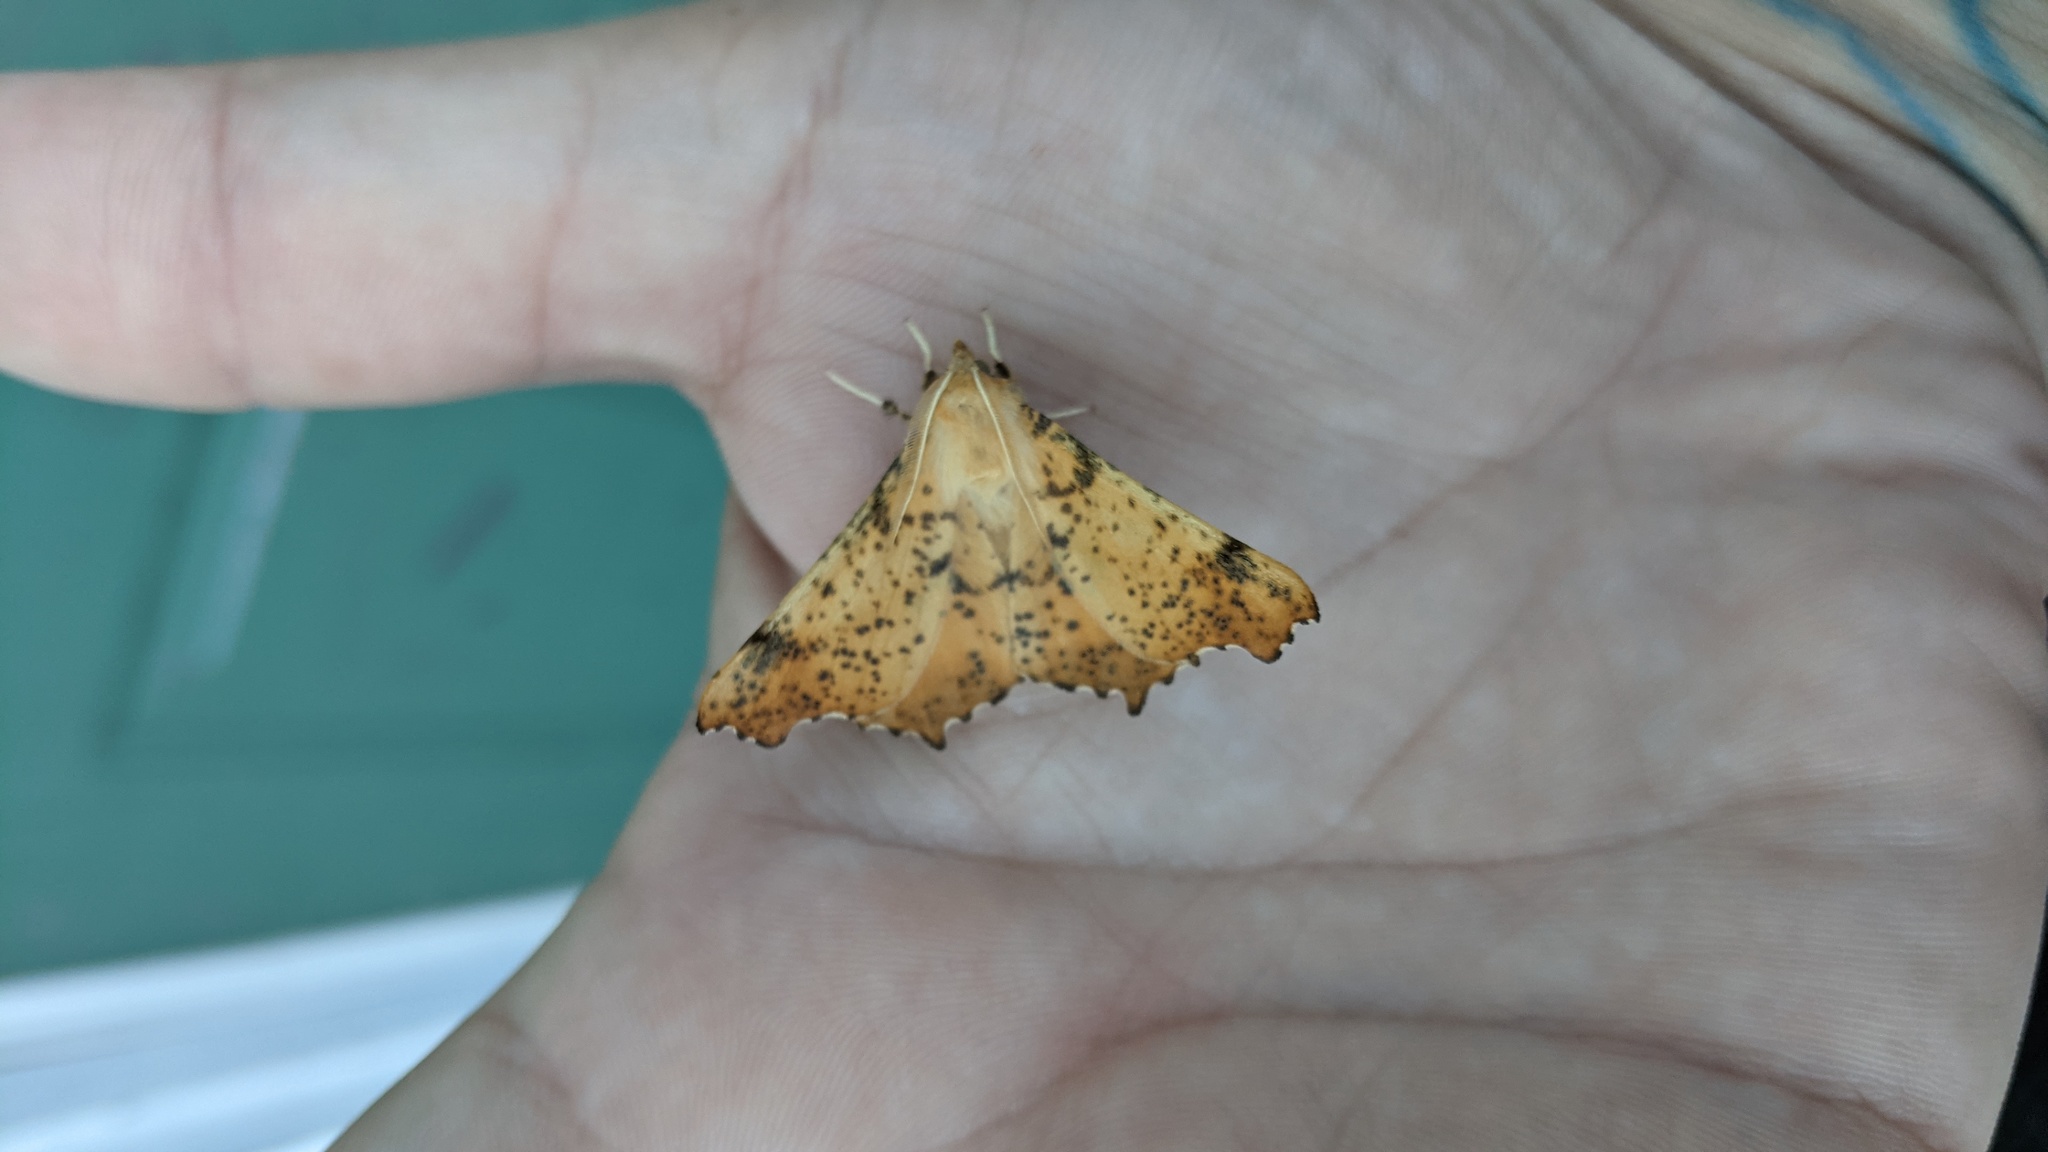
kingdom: Animalia
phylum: Arthropoda
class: Insecta
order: Lepidoptera
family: Geometridae
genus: Ennomos
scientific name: Ennomos magnaria
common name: Maple spanworm
